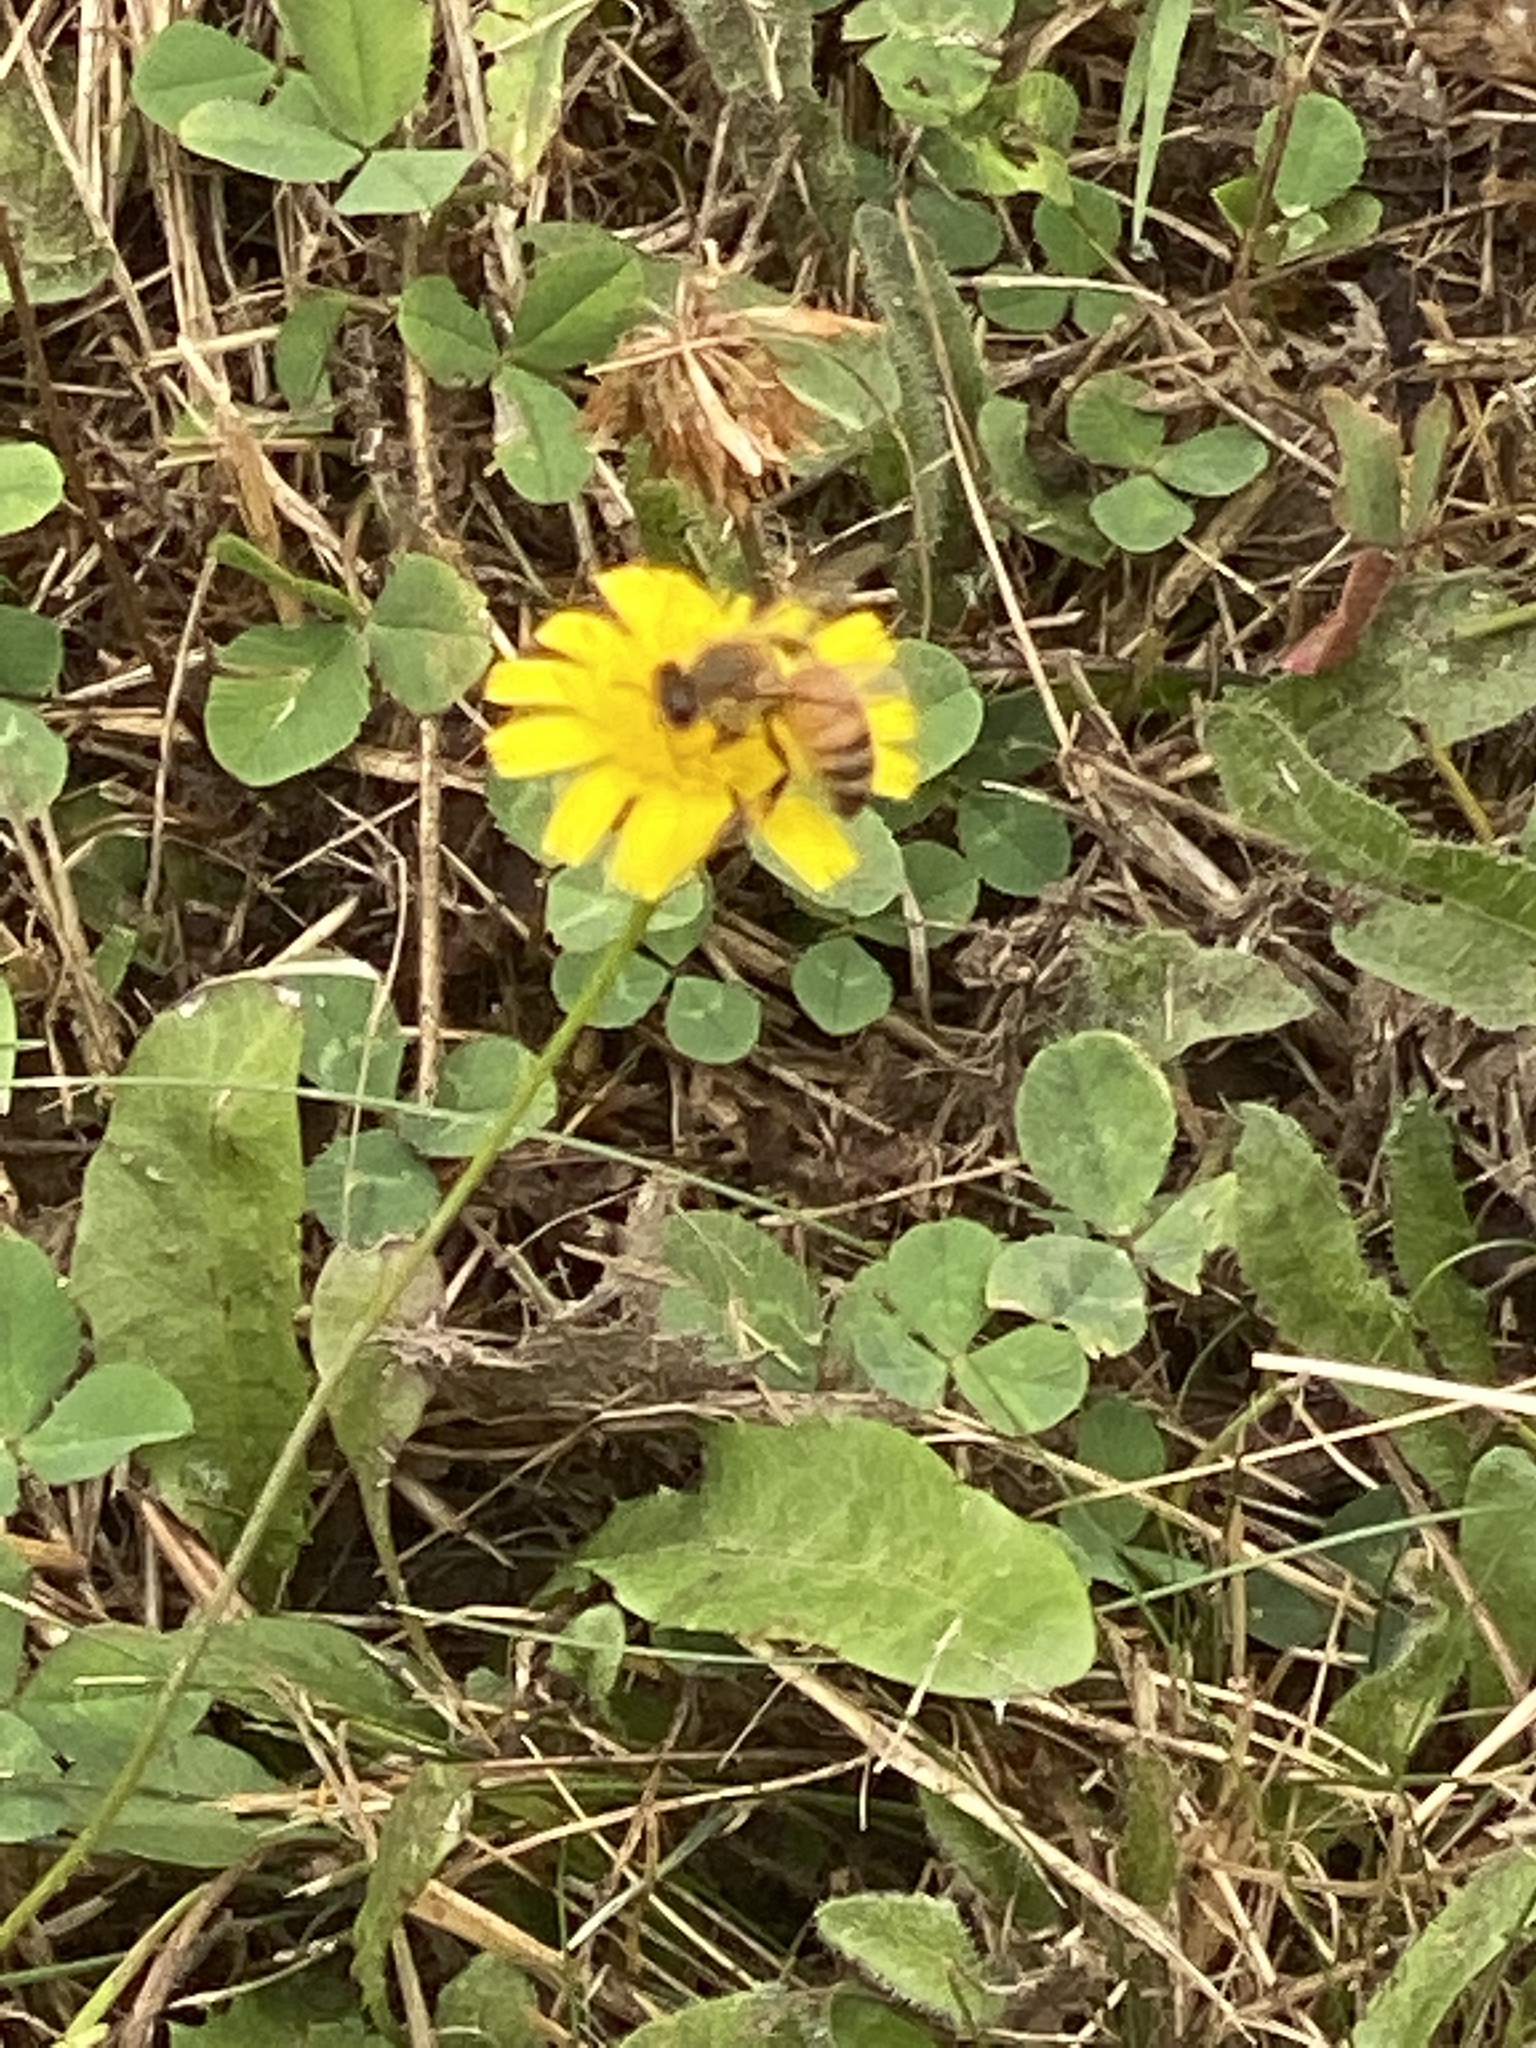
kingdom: Animalia
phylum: Arthropoda
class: Insecta
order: Hymenoptera
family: Apidae
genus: Apis
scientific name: Apis mellifera
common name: Honey bee
